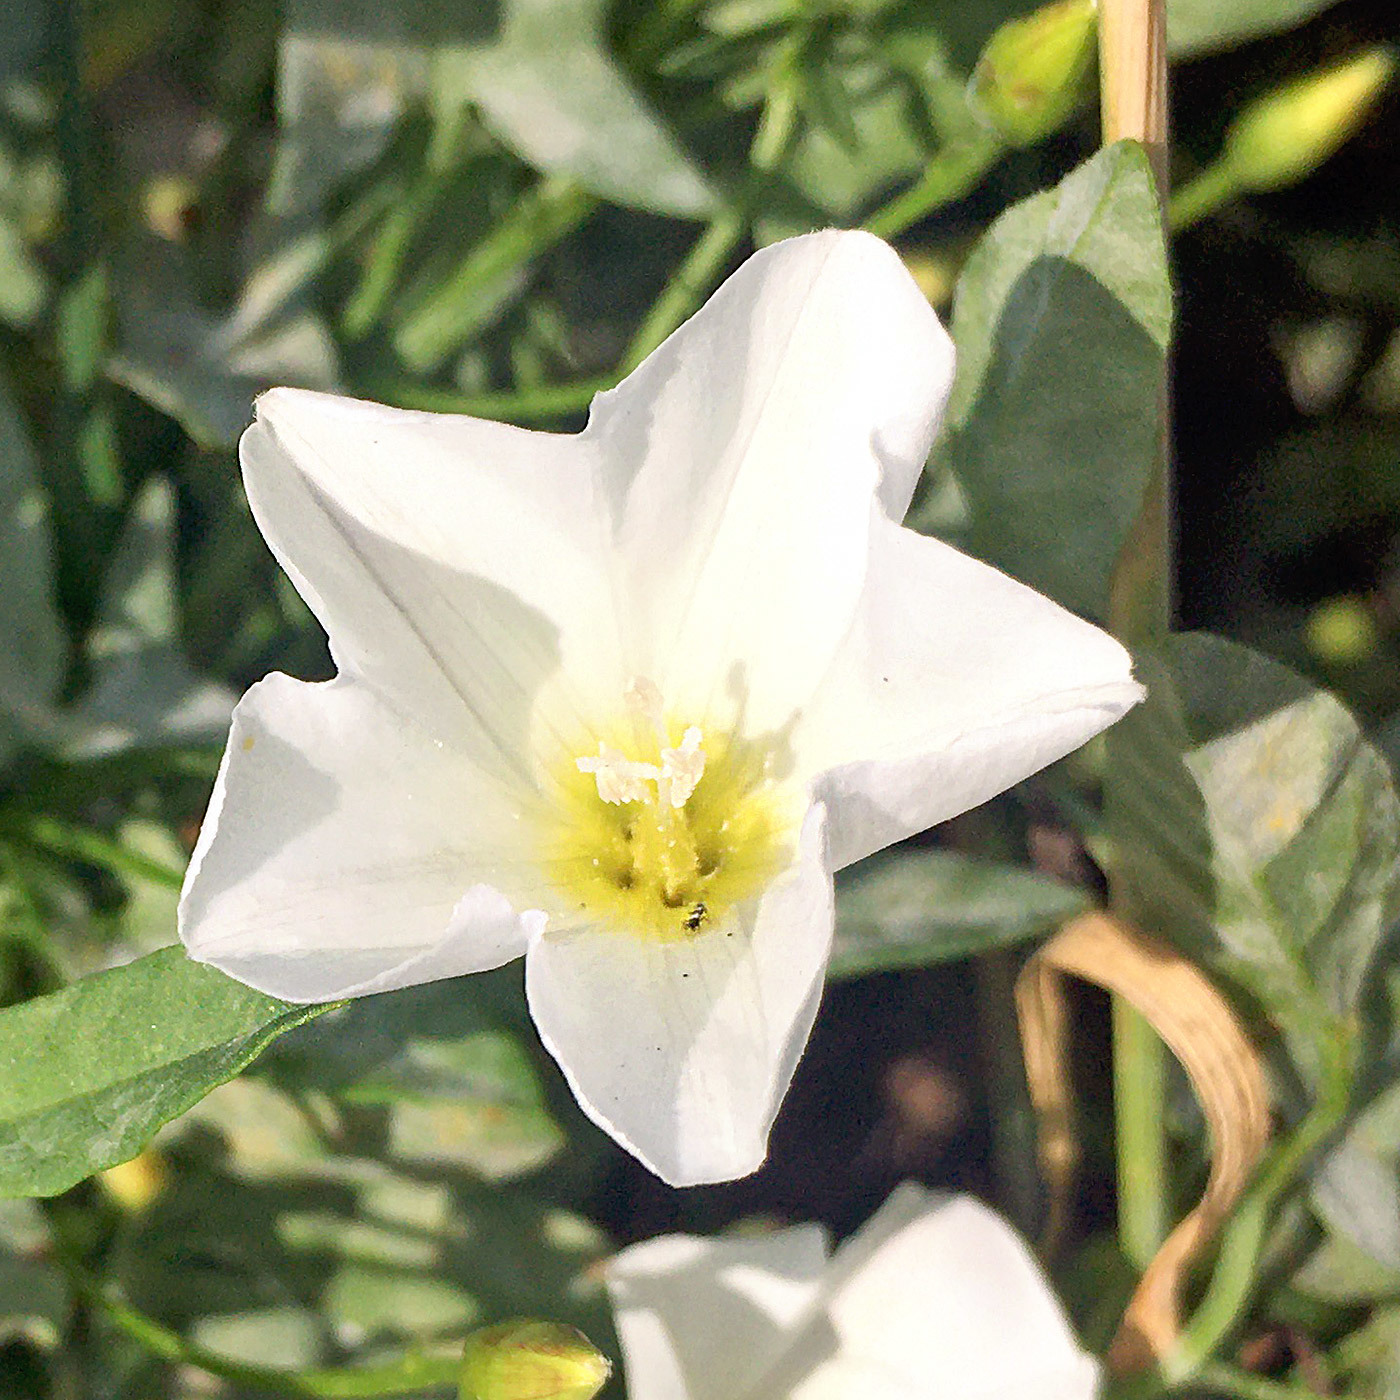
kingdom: Plantae
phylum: Tracheophyta
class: Magnoliopsida
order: Solanales
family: Convolvulaceae
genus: Convolvulus
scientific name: Convolvulus arvensis
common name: Field bindweed
